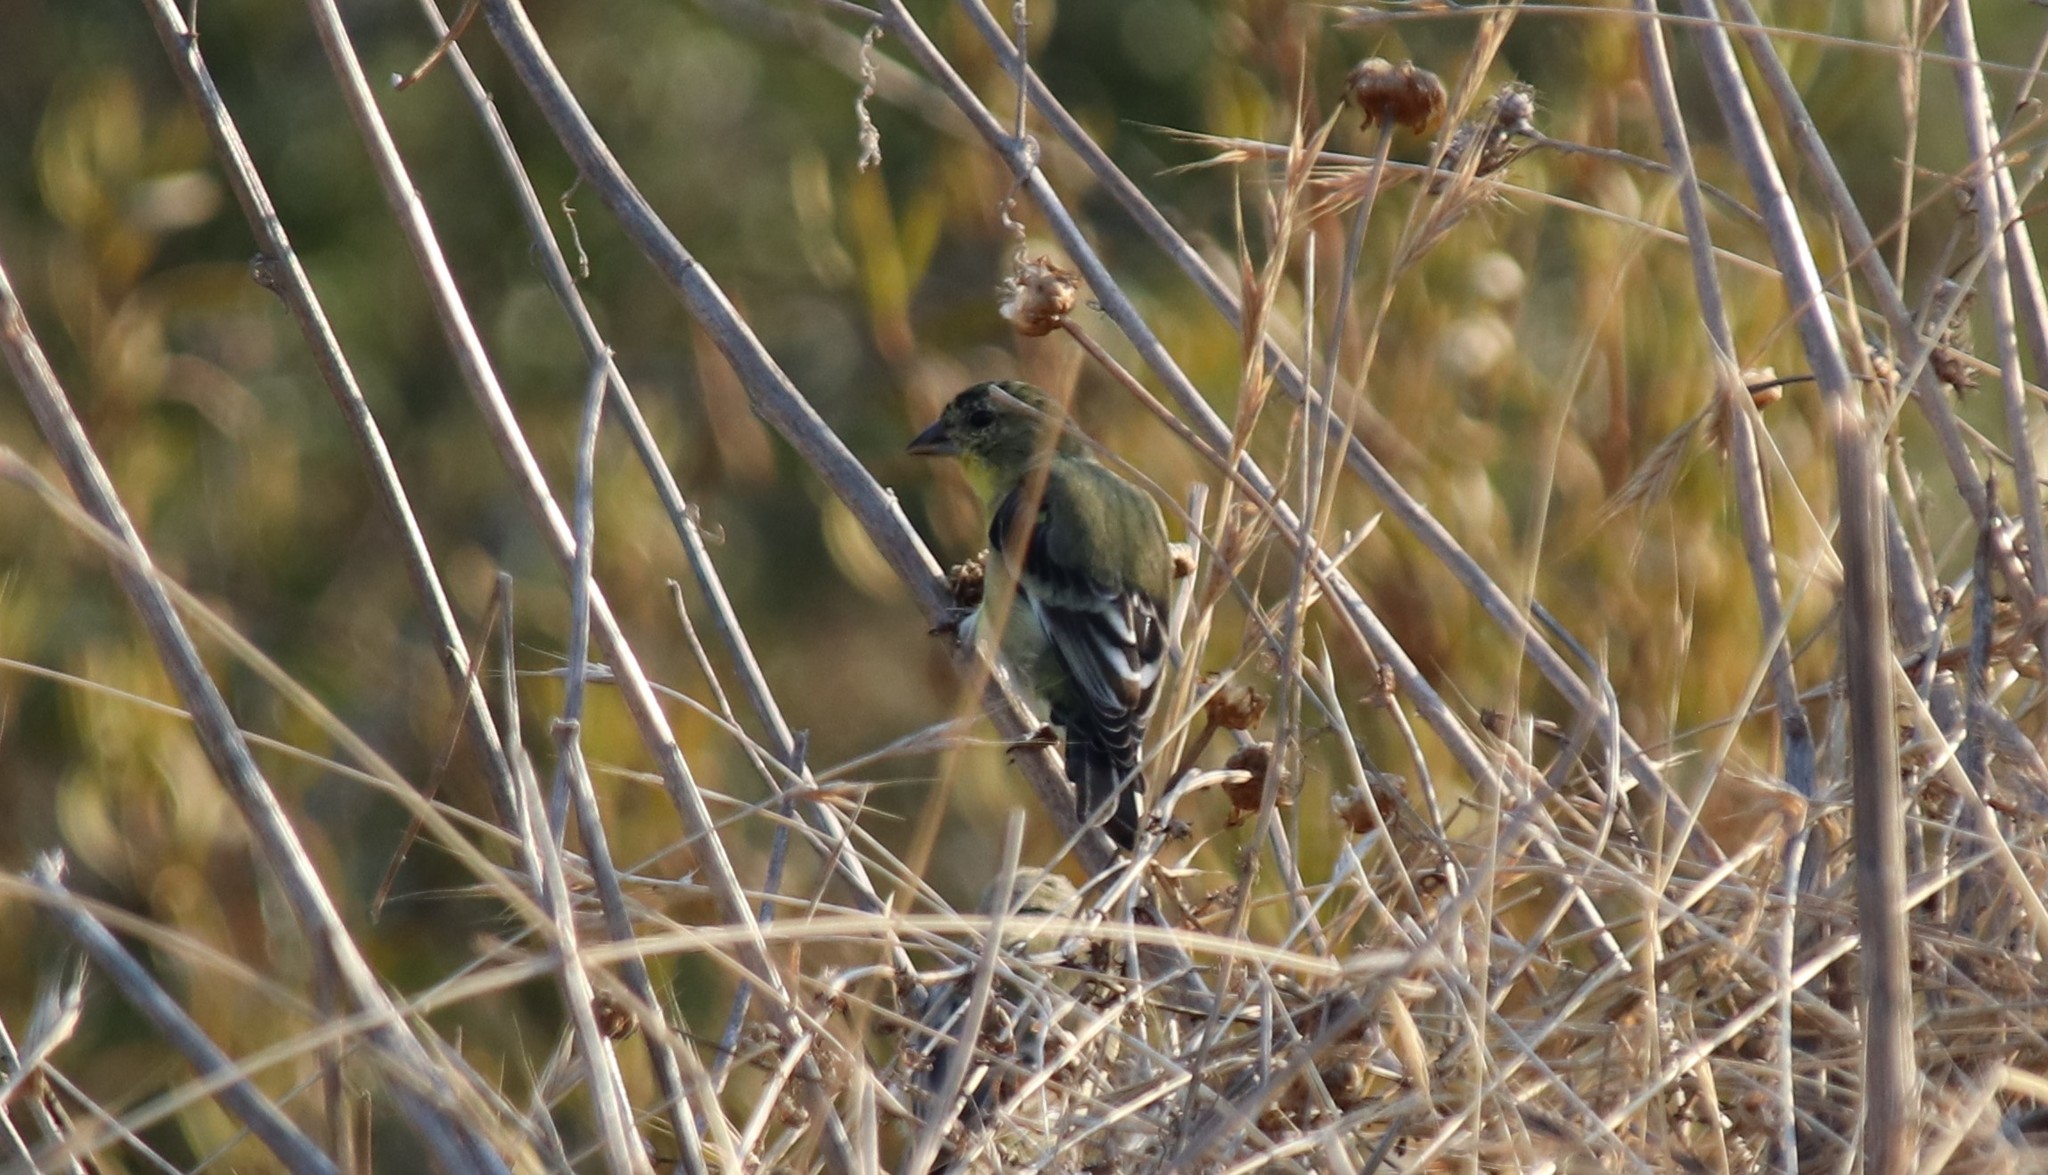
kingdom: Animalia
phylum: Chordata
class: Aves
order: Passeriformes
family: Fringillidae
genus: Spinus
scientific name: Spinus psaltria
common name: Lesser goldfinch
